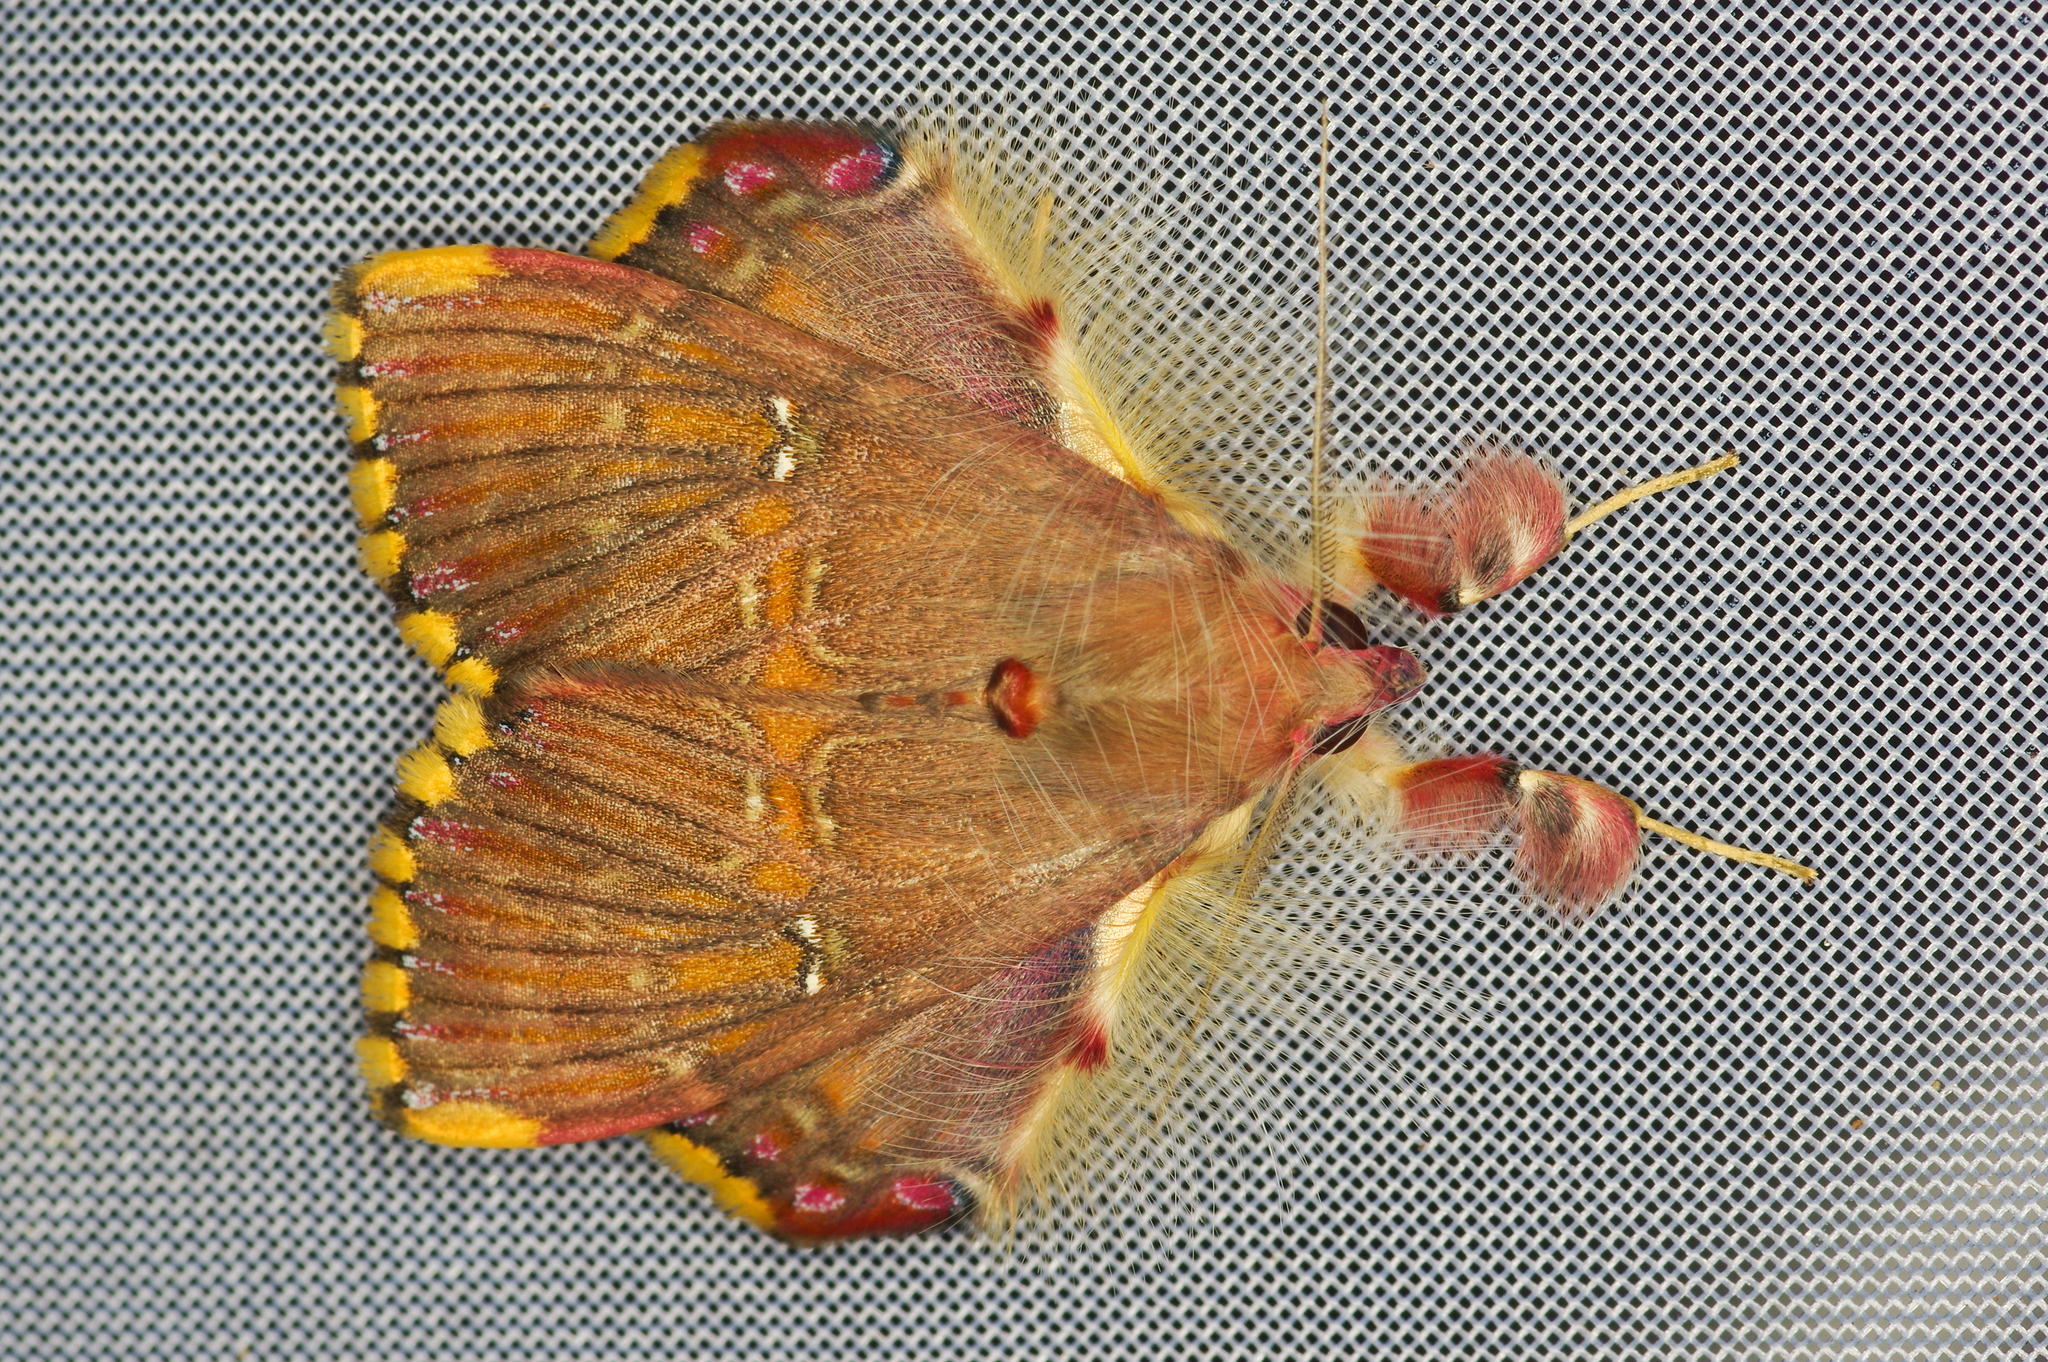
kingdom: Animalia
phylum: Arthropoda
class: Insecta
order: Lepidoptera
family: Erebidae
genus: Sosxetra
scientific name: Sosxetra grata
